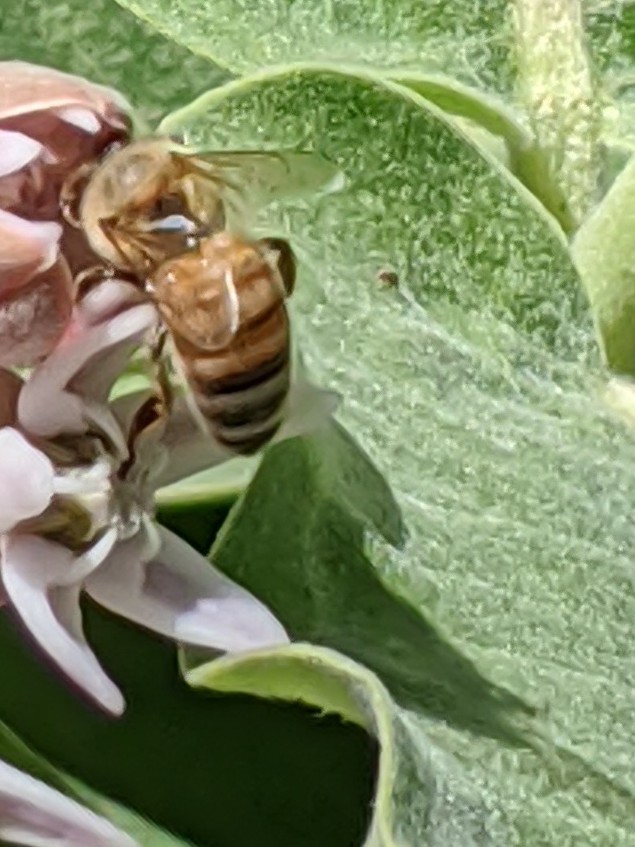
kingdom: Animalia
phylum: Arthropoda
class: Insecta
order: Hymenoptera
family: Apidae
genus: Apis
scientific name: Apis mellifera
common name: Honey bee
